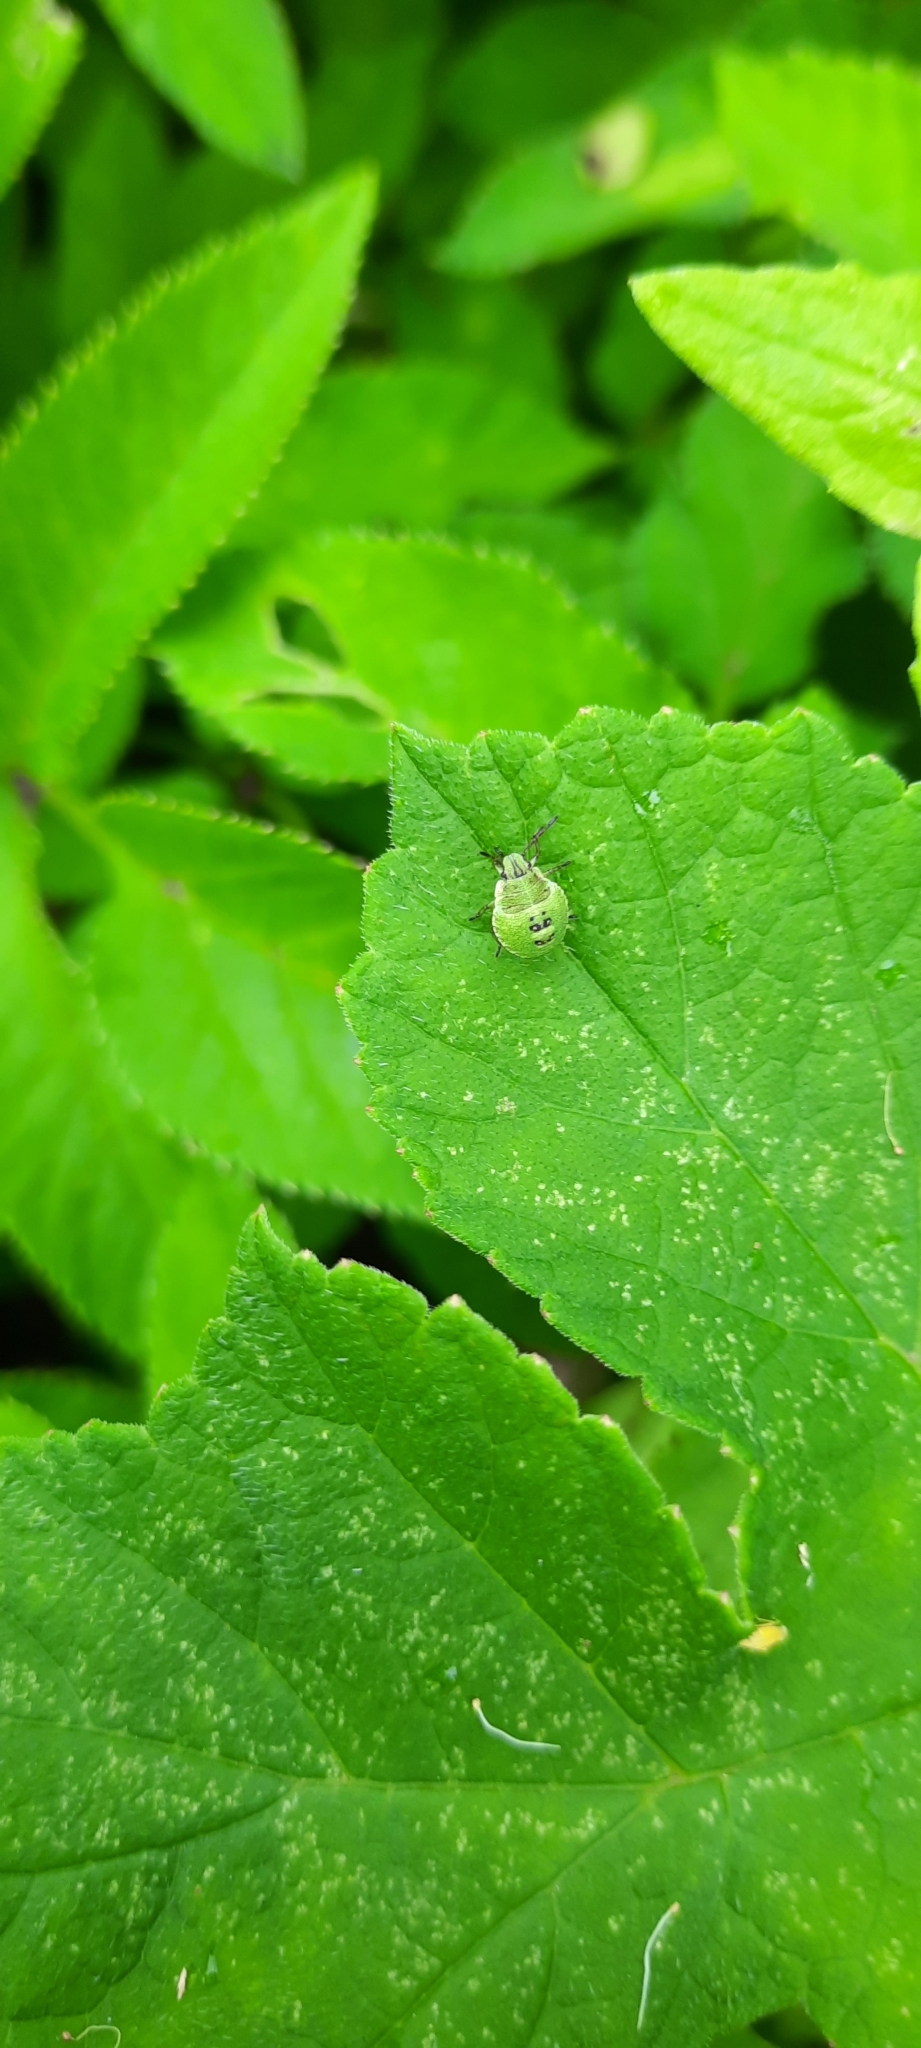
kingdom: Animalia
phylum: Arthropoda
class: Insecta
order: Hemiptera
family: Pentatomidae
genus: Palomena
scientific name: Palomena prasina
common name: Green shieldbug
